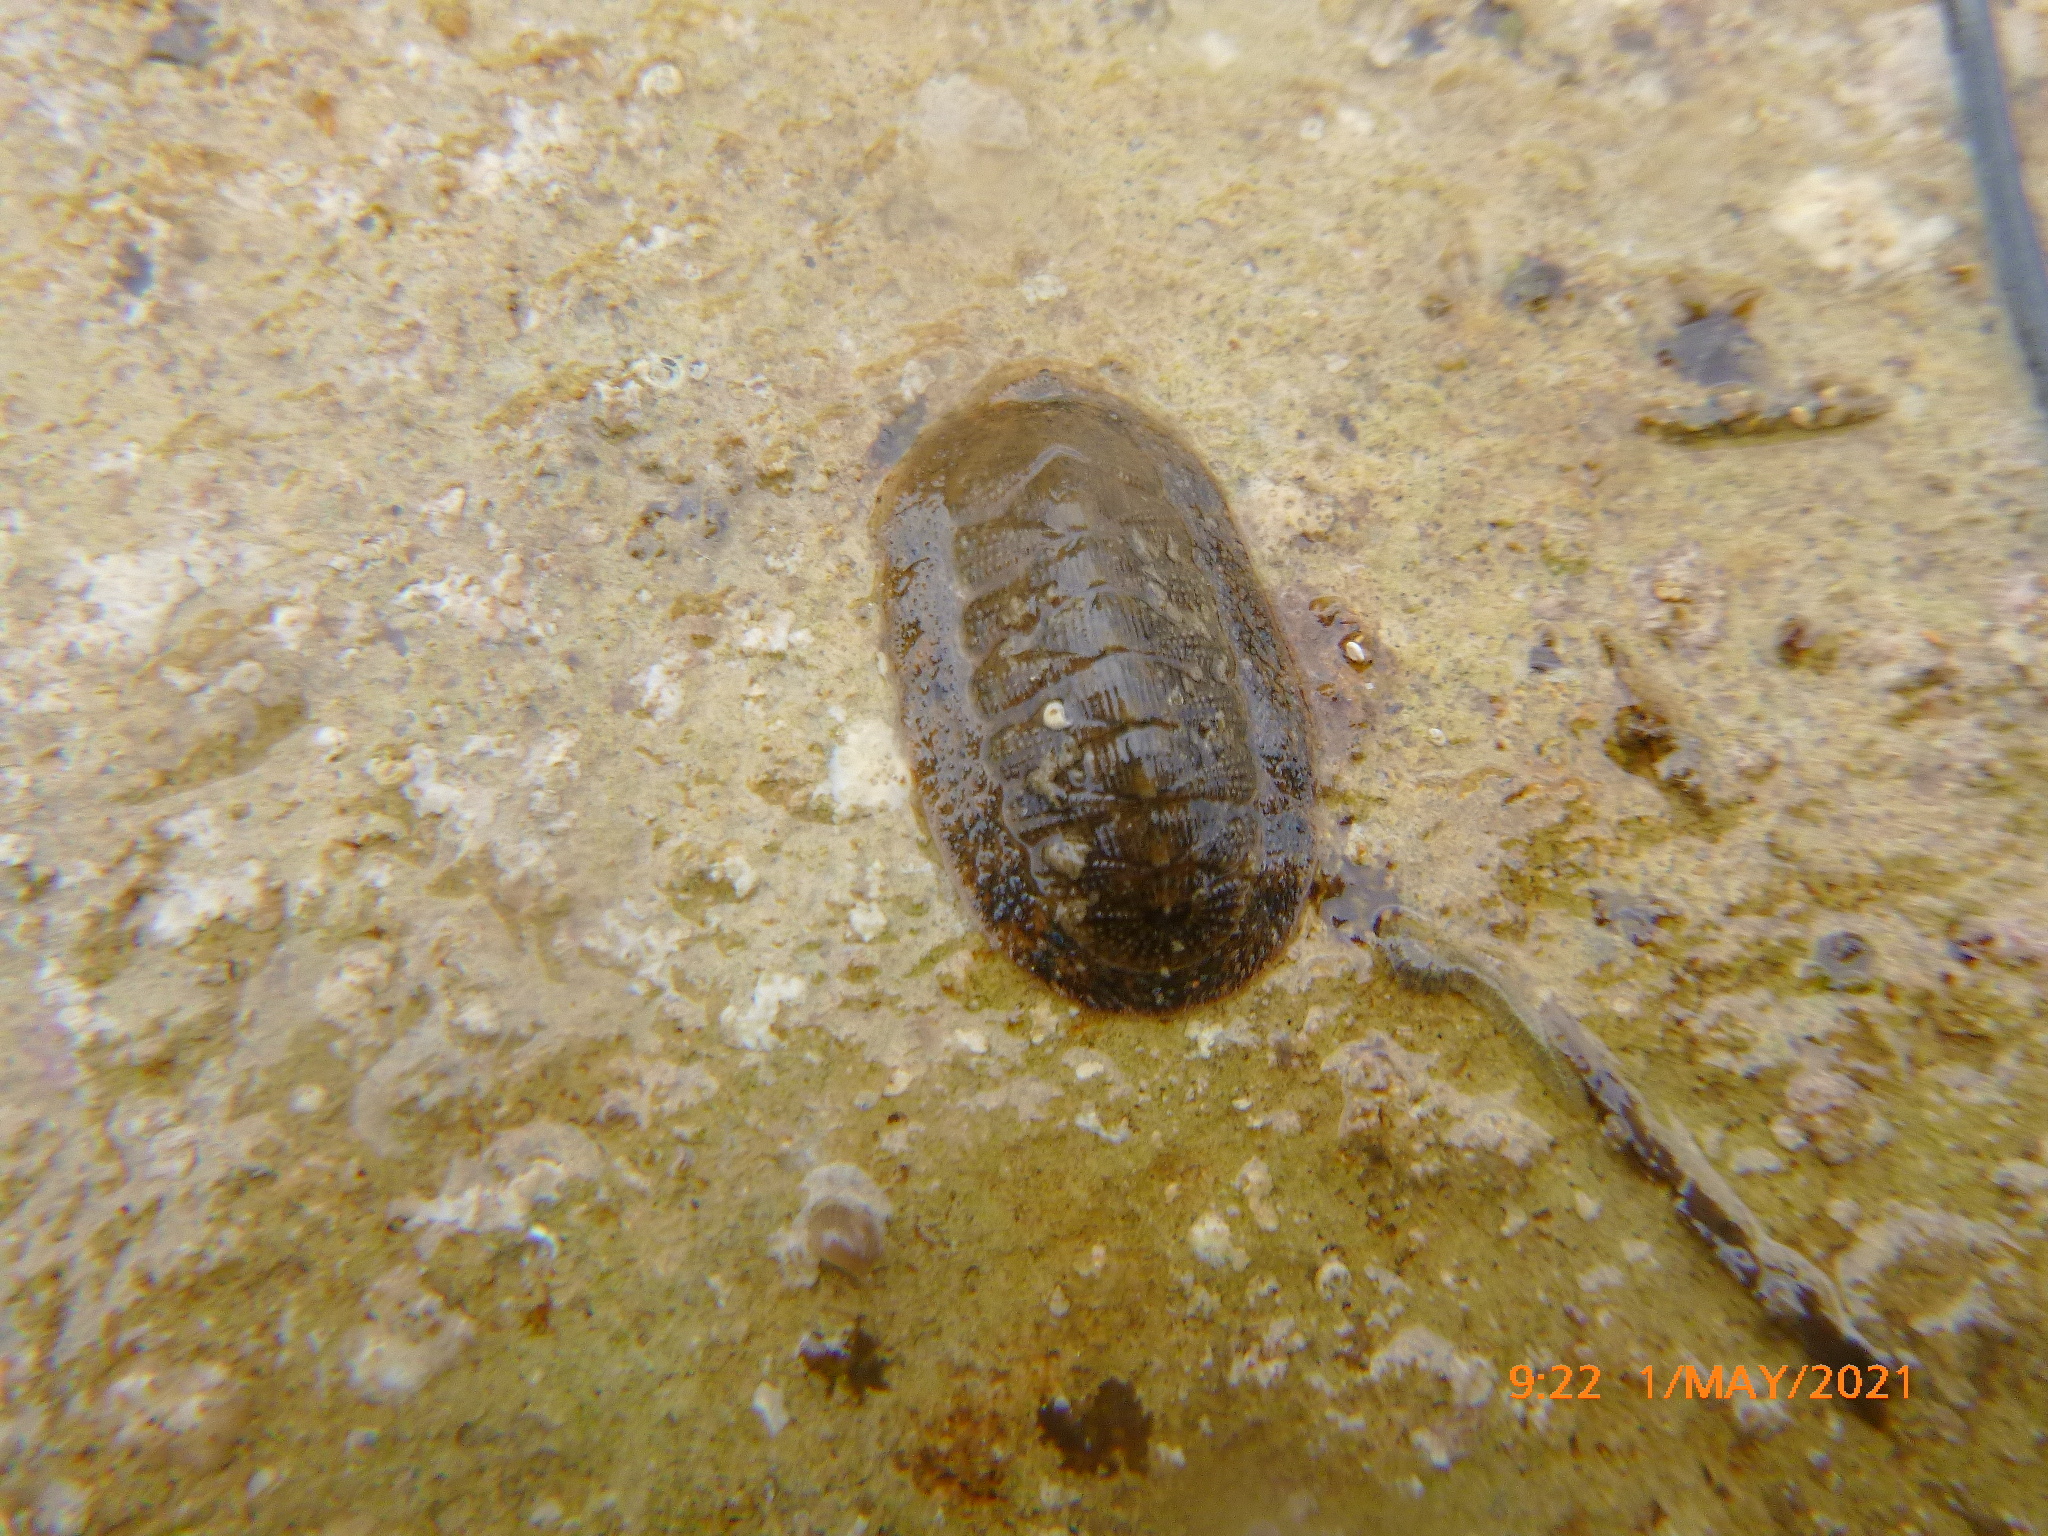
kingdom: Animalia
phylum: Mollusca
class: Polyplacophora
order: Chitonida
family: Ischnochitonidae
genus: Lepidozona
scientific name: Lepidozona pectinulata
